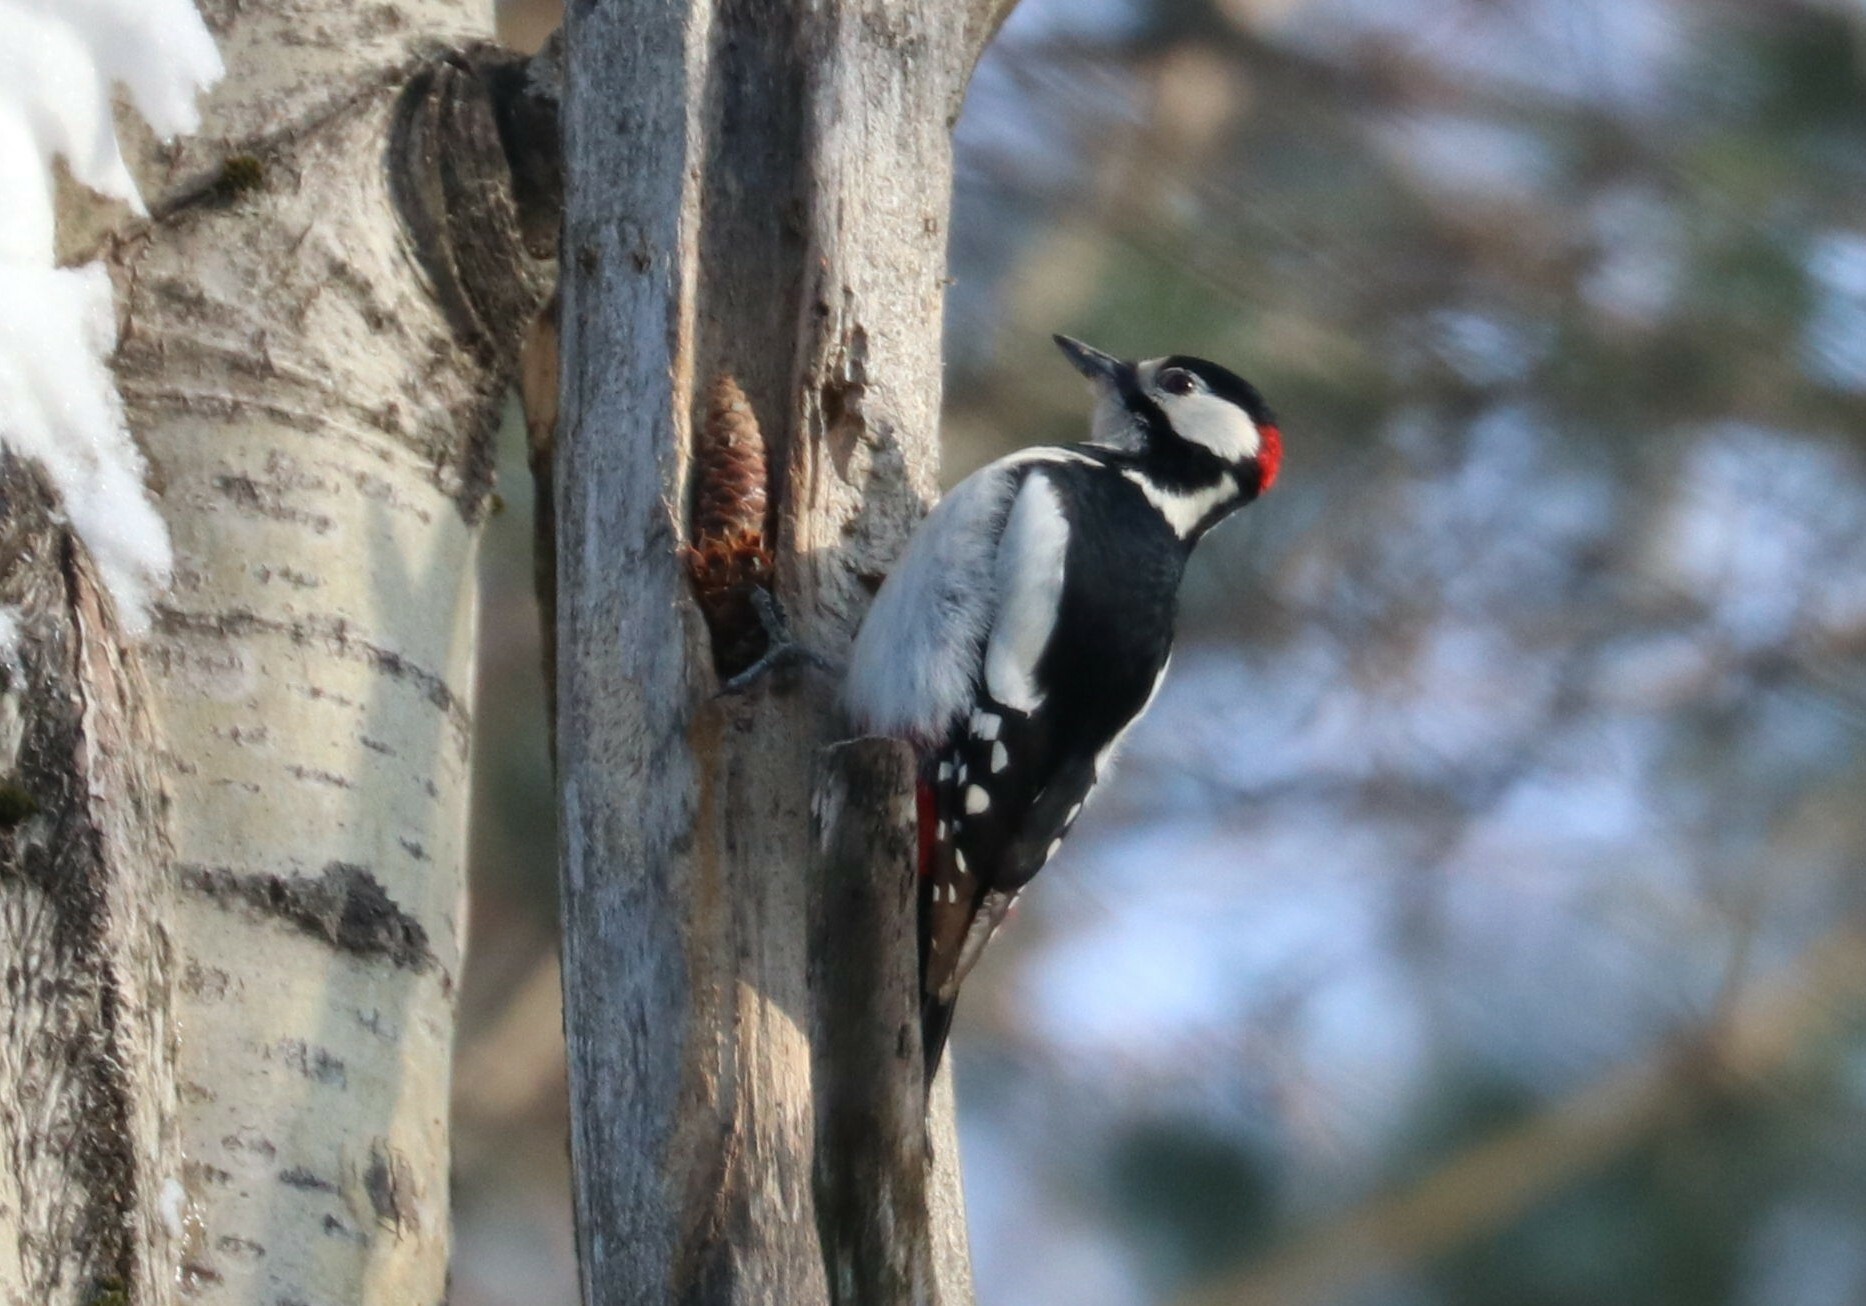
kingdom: Animalia
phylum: Chordata
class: Aves
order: Piciformes
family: Picidae
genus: Dendrocopos
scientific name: Dendrocopos major
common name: Great spotted woodpecker
